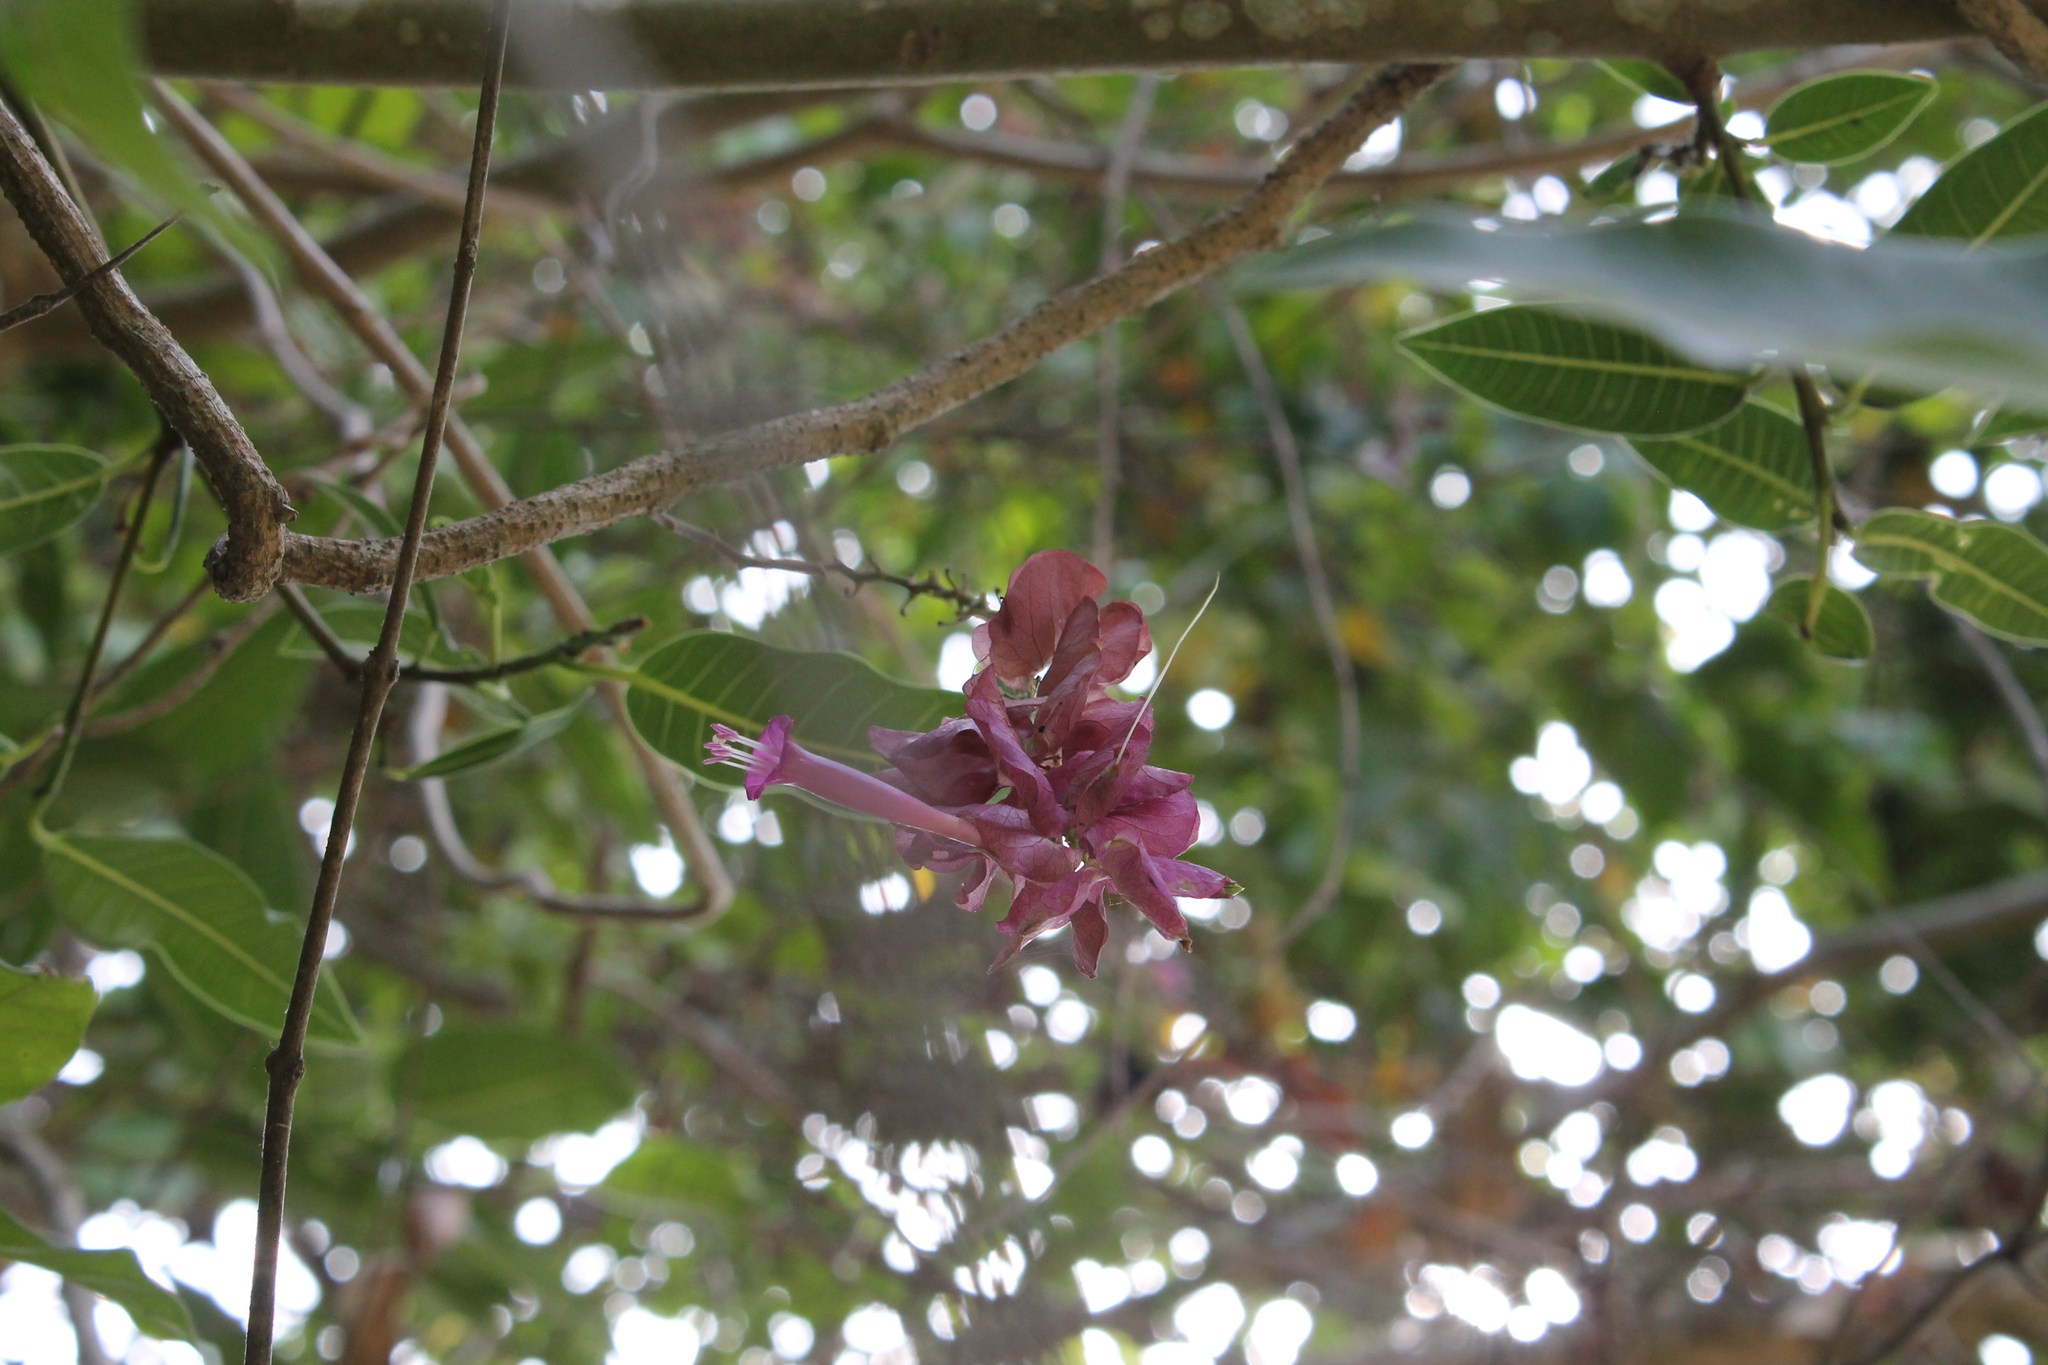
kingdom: Plantae
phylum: Tracheophyta
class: Magnoliopsida
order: Solanales
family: Convolvulaceae
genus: Ipomoea
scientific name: Ipomoea bracteata
